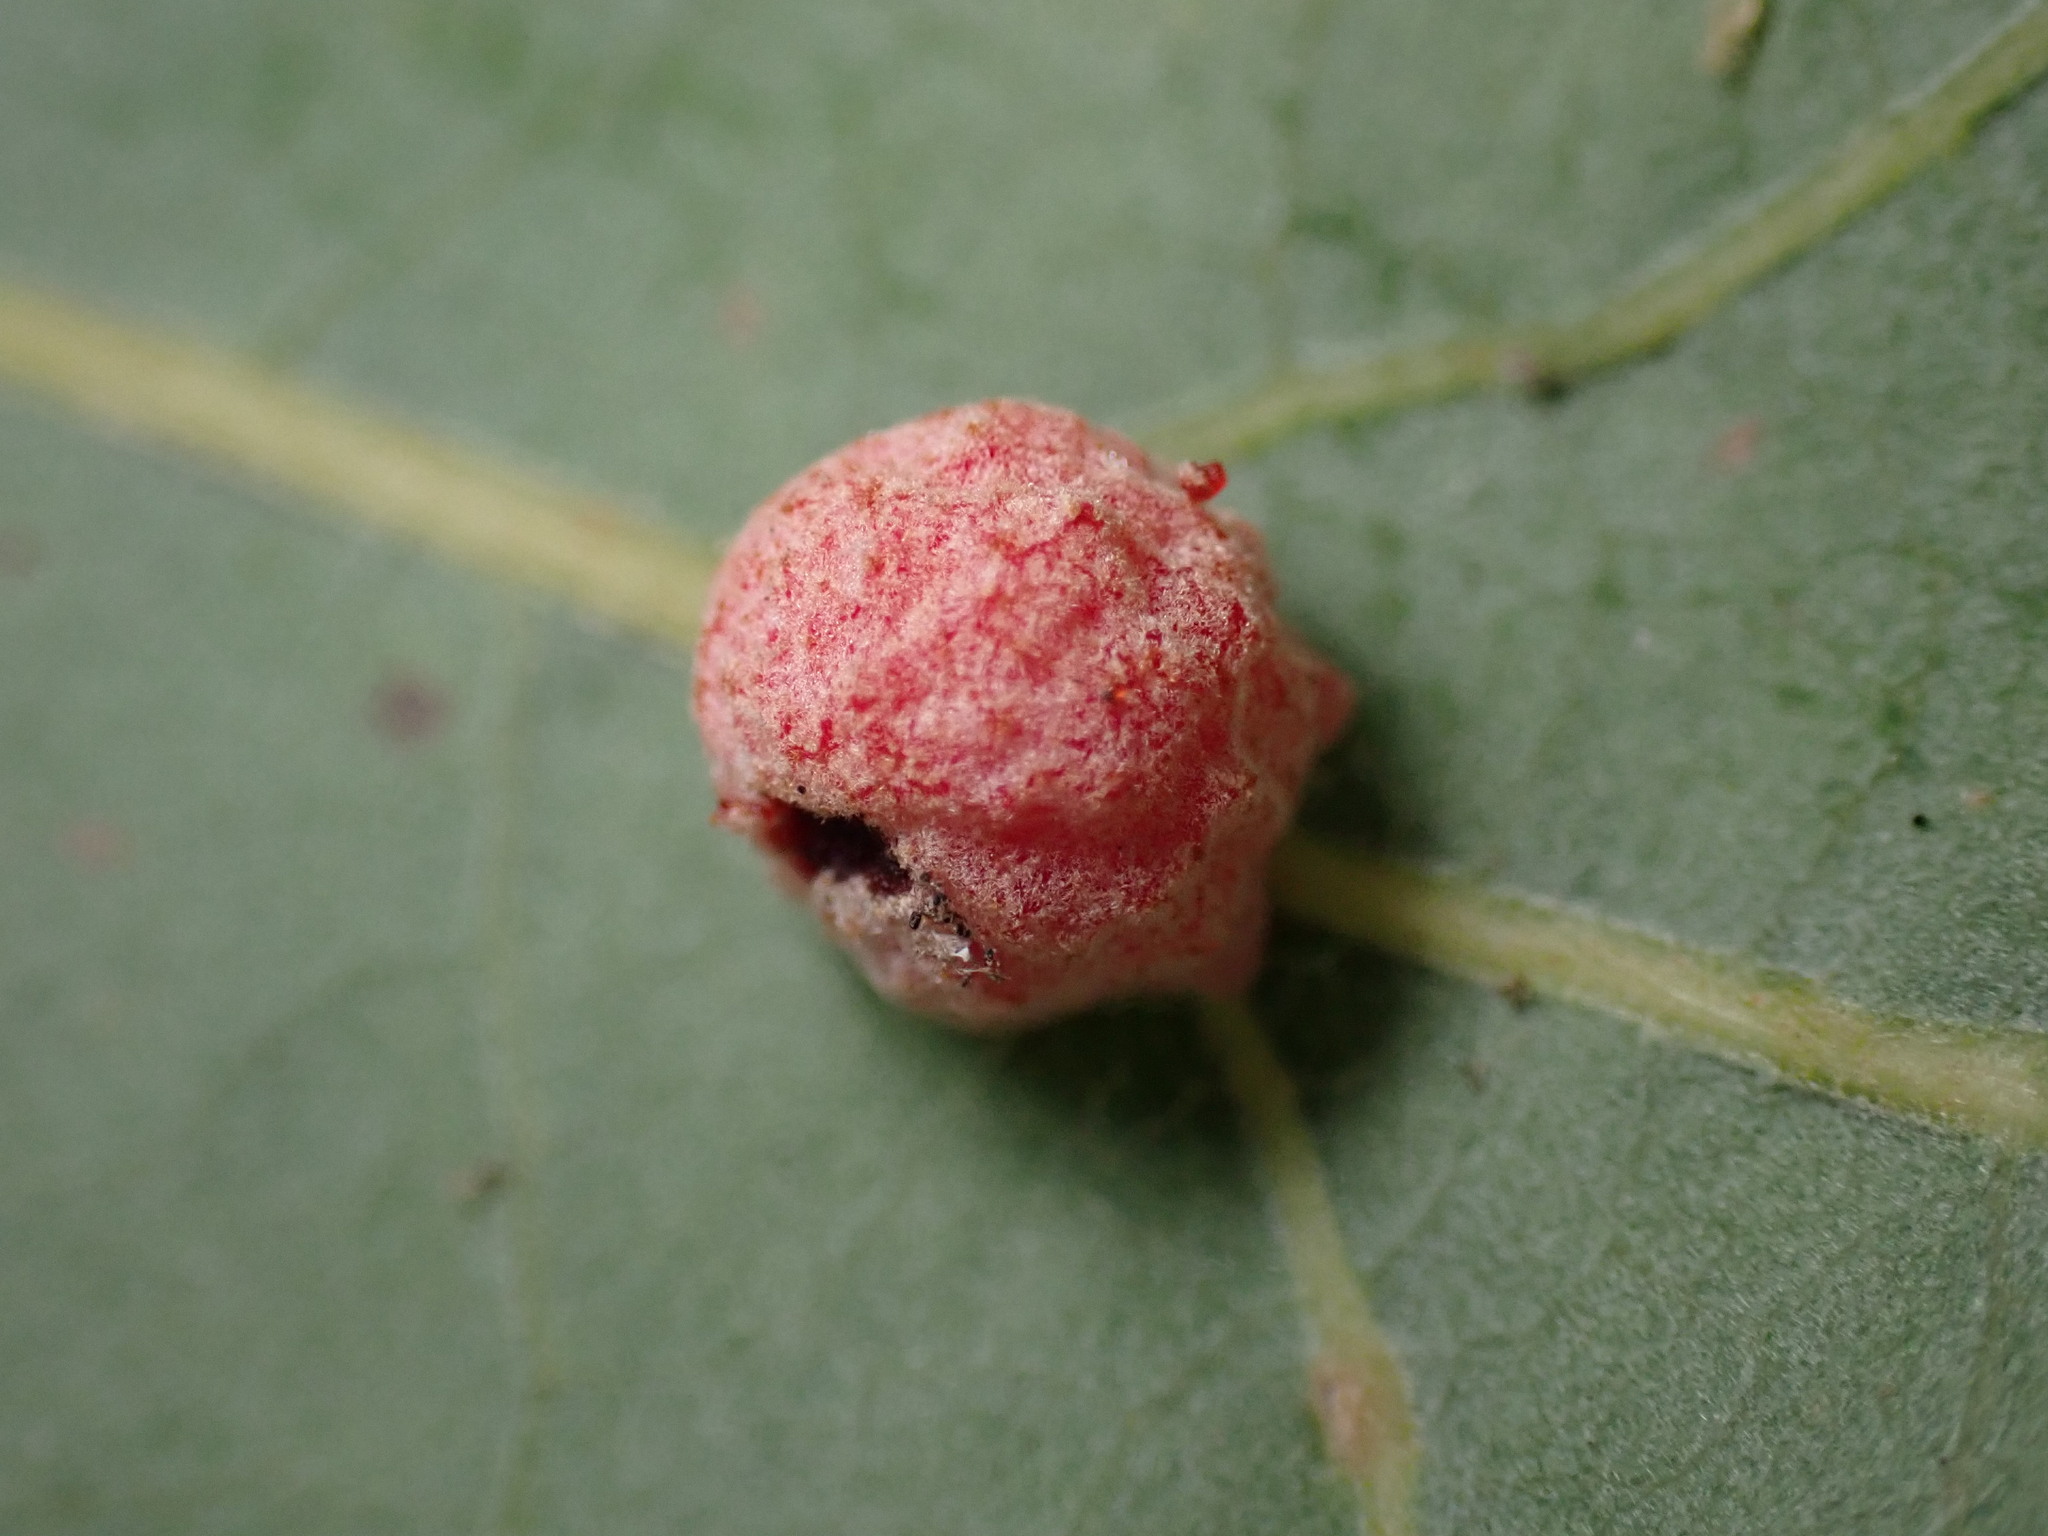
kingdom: Animalia
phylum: Arthropoda
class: Insecta
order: Hymenoptera
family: Cynipidae
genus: Cynips
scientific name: Cynips conspicua
